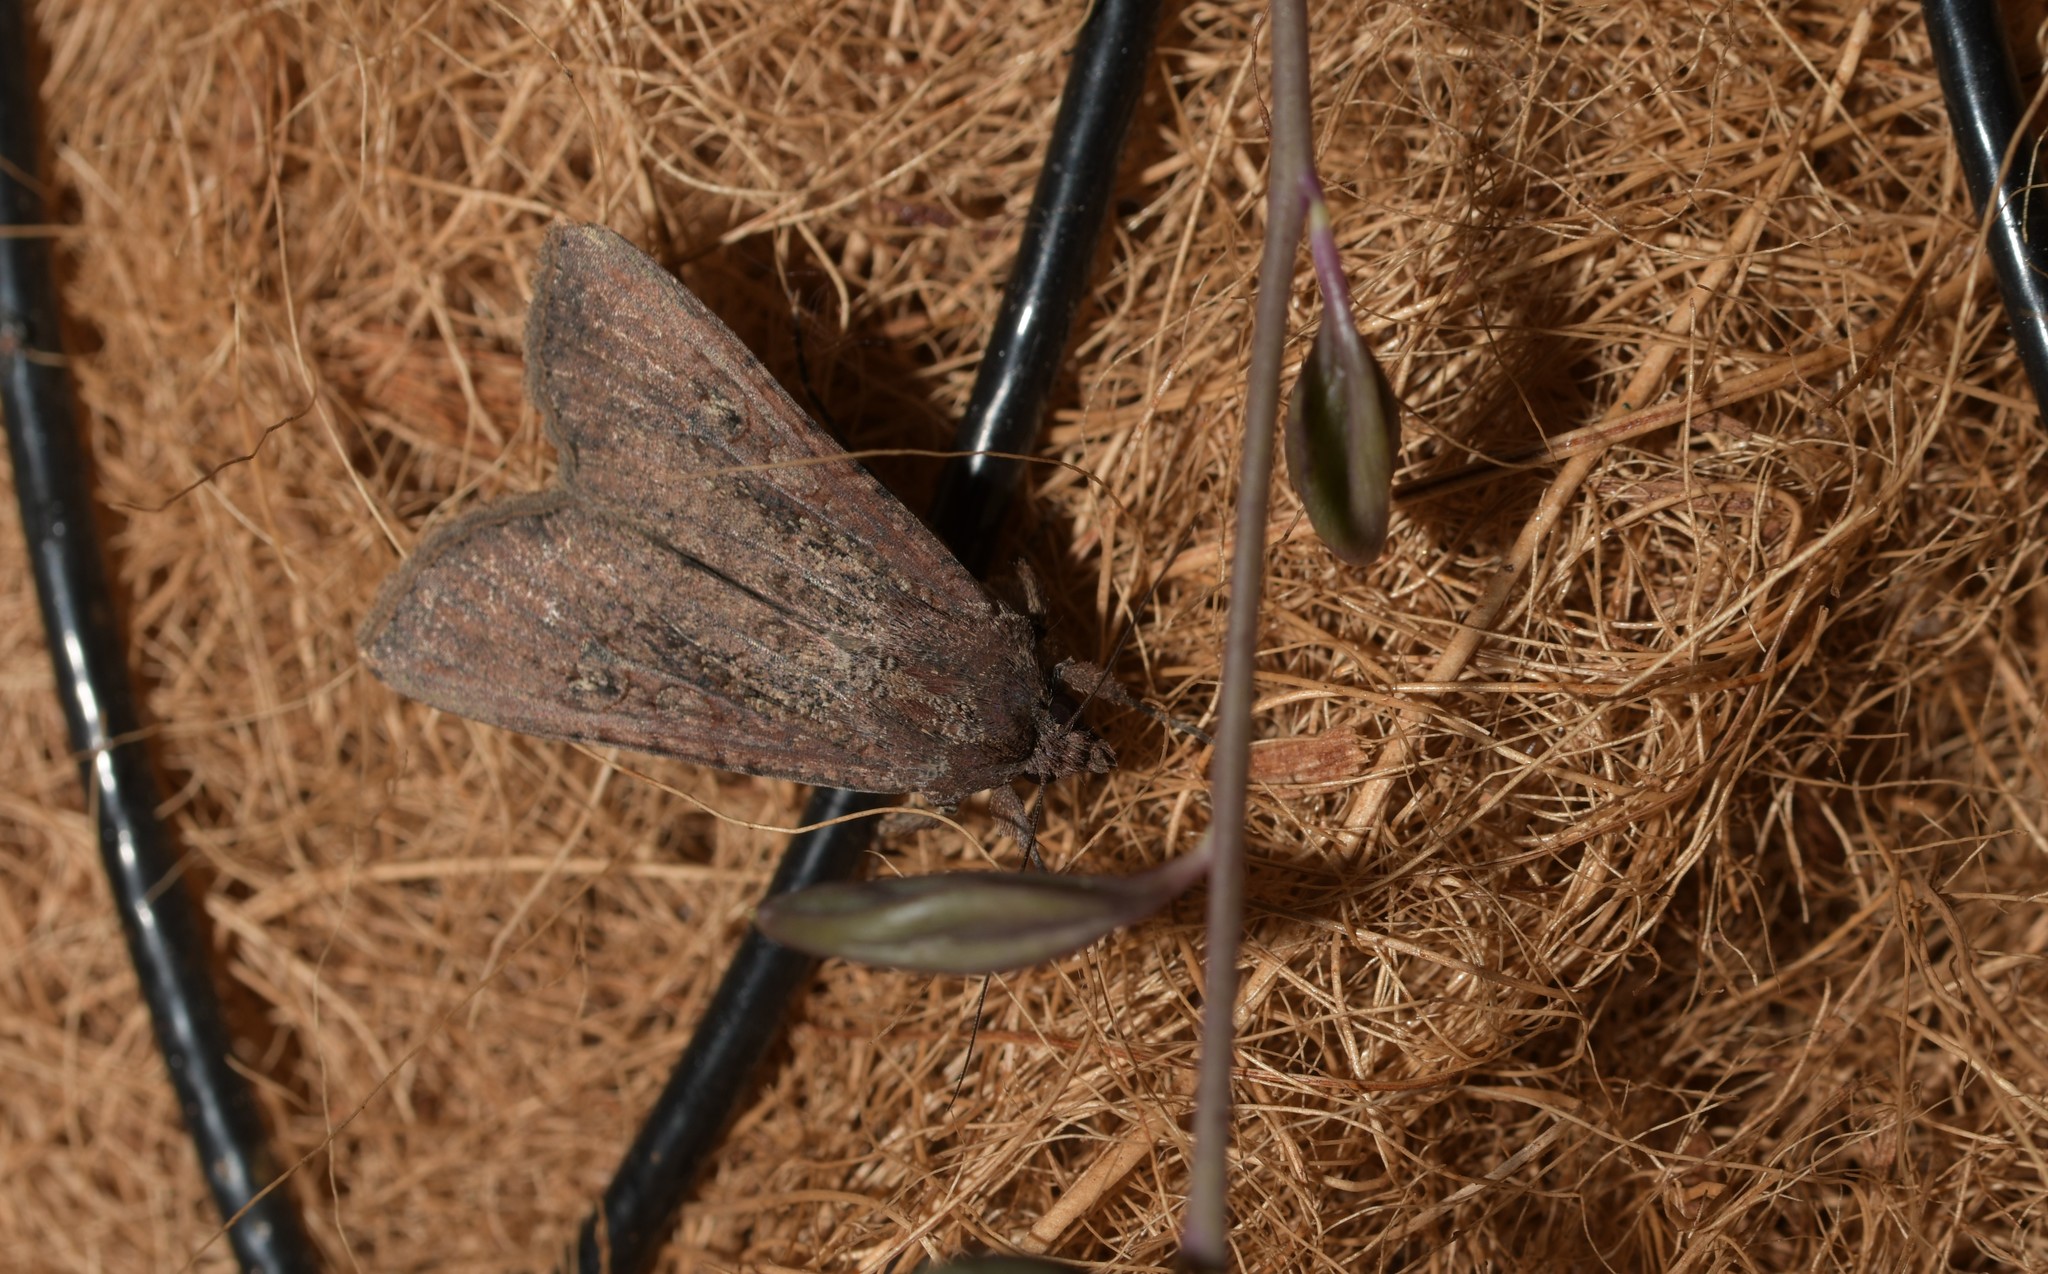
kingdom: Animalia
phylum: Arthropoda
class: Insecta
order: Lepidoptera
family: Noctuidae
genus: Peridroma
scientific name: Peridroma saucia
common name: Pearly underwing
